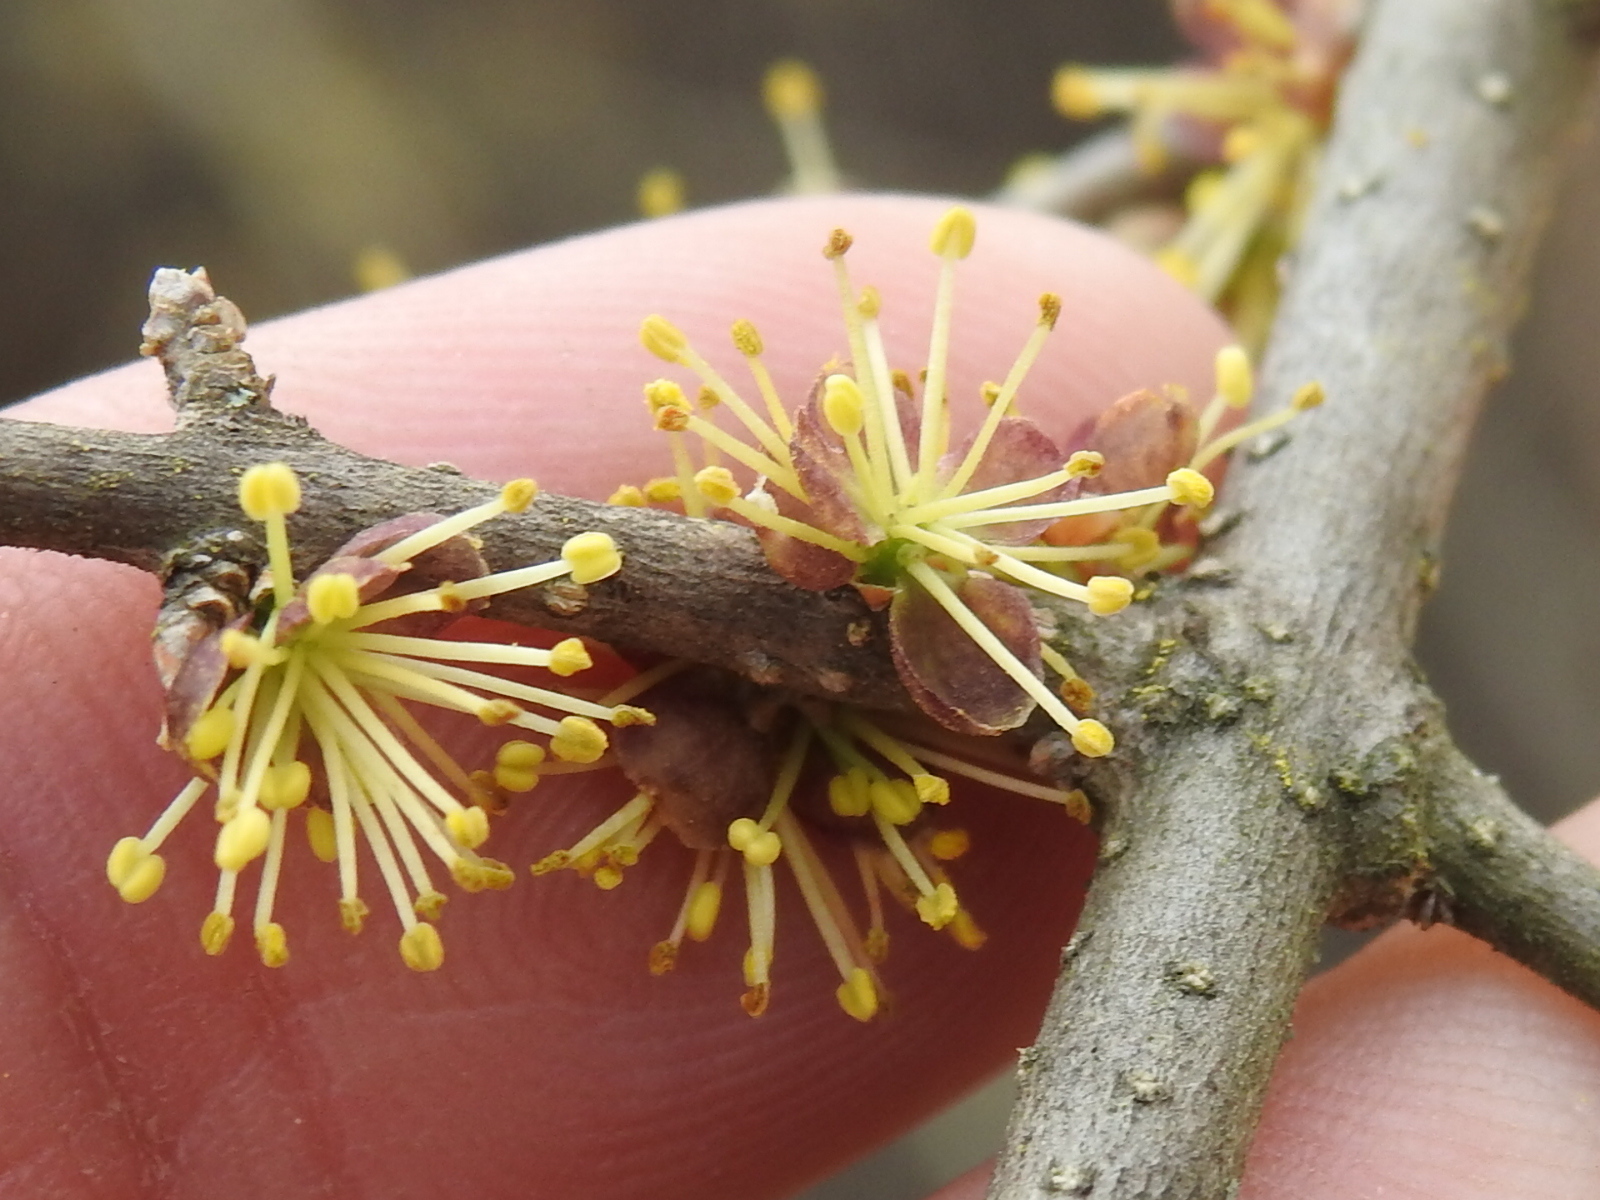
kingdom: Plantae
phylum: Tracheophyta
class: Magnoliopsida
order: Lamiales
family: Oleaceae
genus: Forestiera
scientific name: Forestiera pubescens
